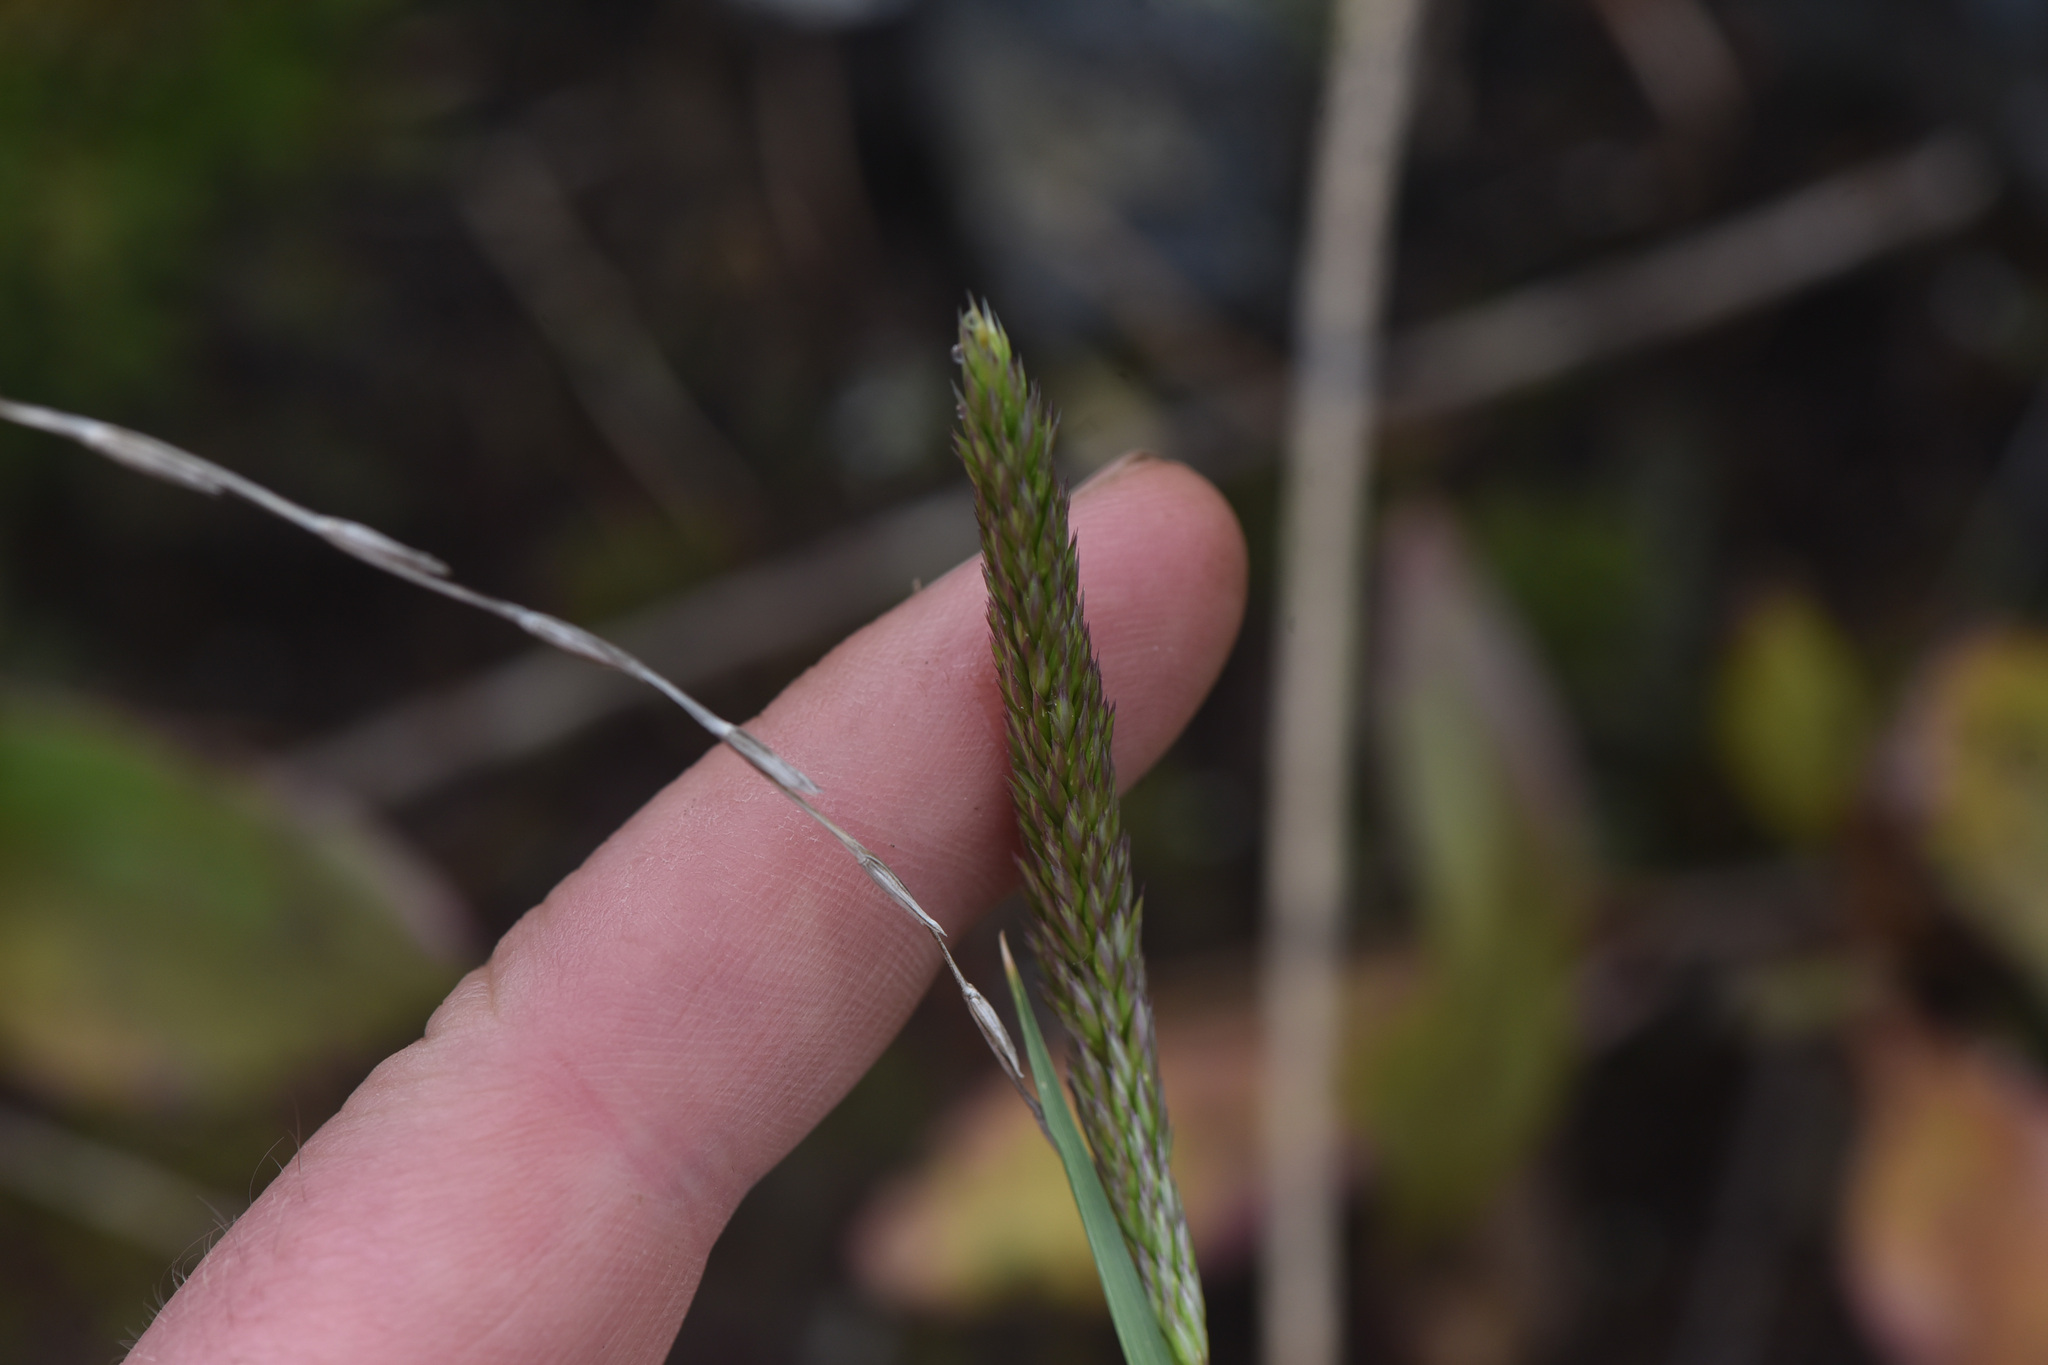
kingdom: Plantae
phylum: Tracheophyta
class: Liliopsida
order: Poales
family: Poaceae
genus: Koeleria
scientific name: Koeleria macrantha
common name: Crested hair-grass
